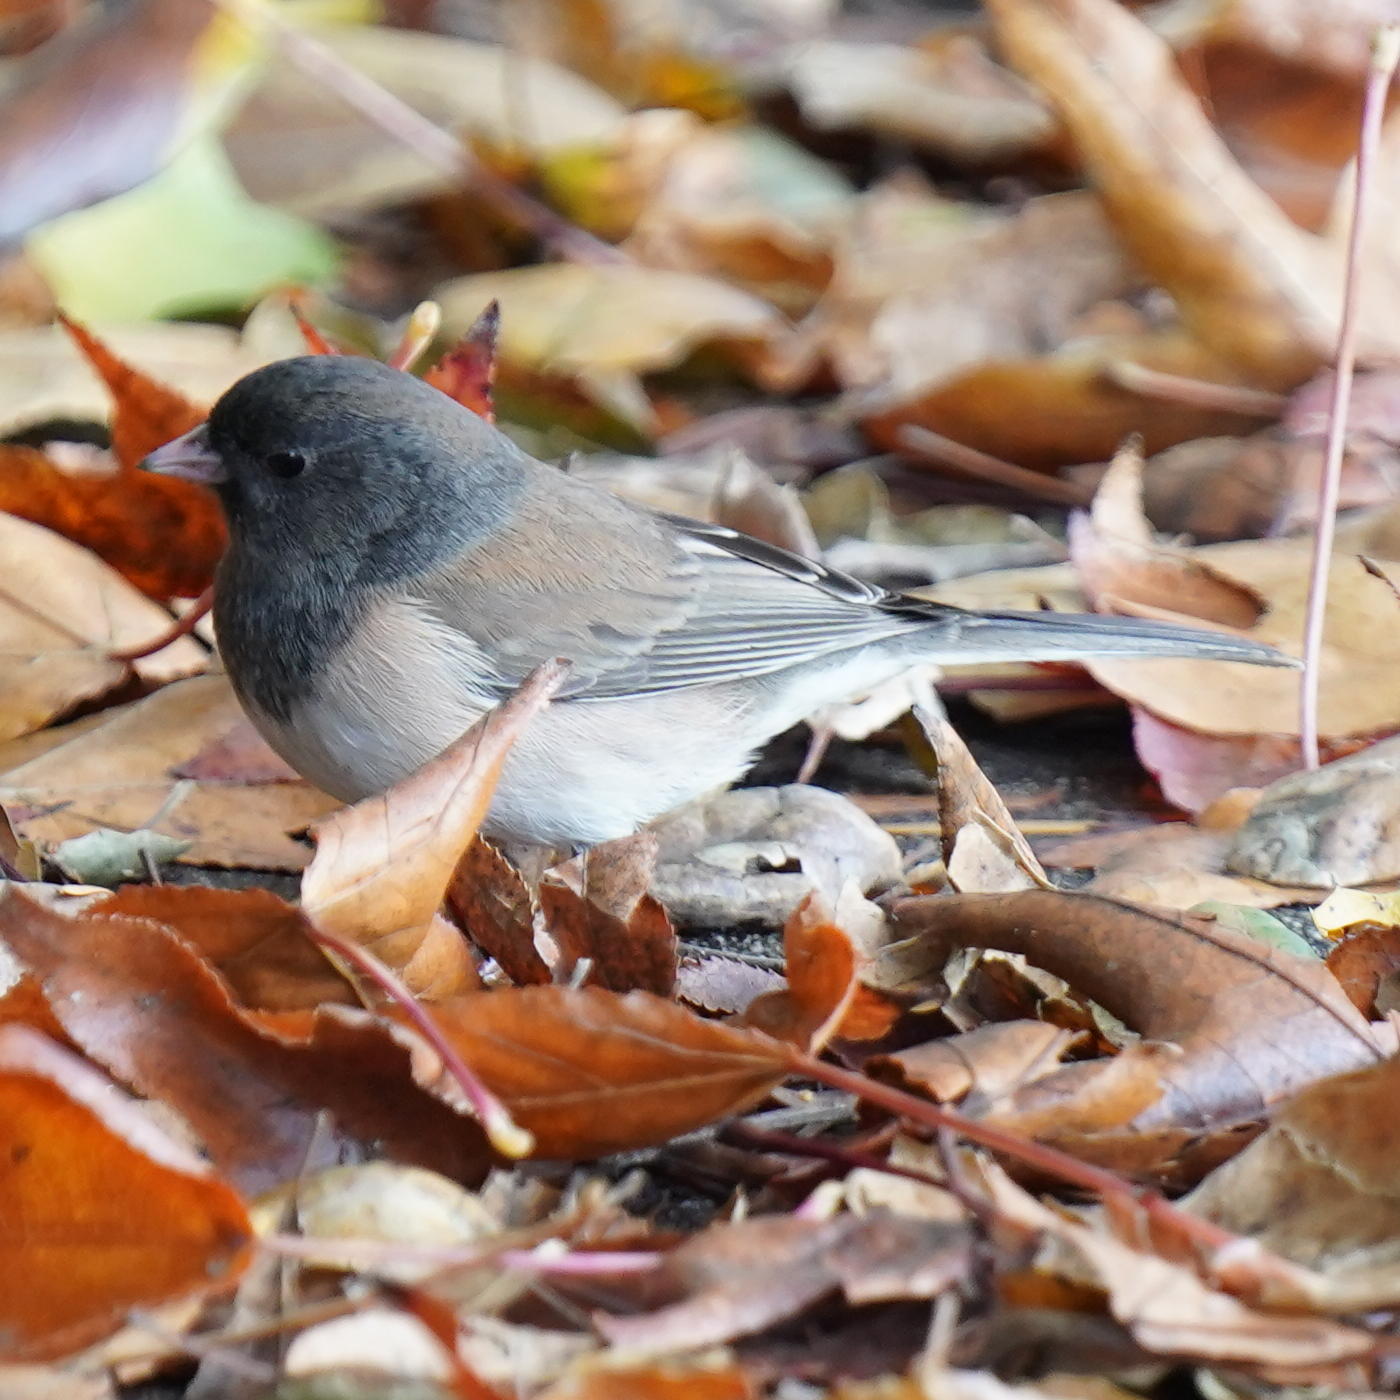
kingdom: Animalia
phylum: Chordata
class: Aves
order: Passeriformes
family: Passerellidae
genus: Junco
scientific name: Junco hyemalis
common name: Dark-eyed junco
